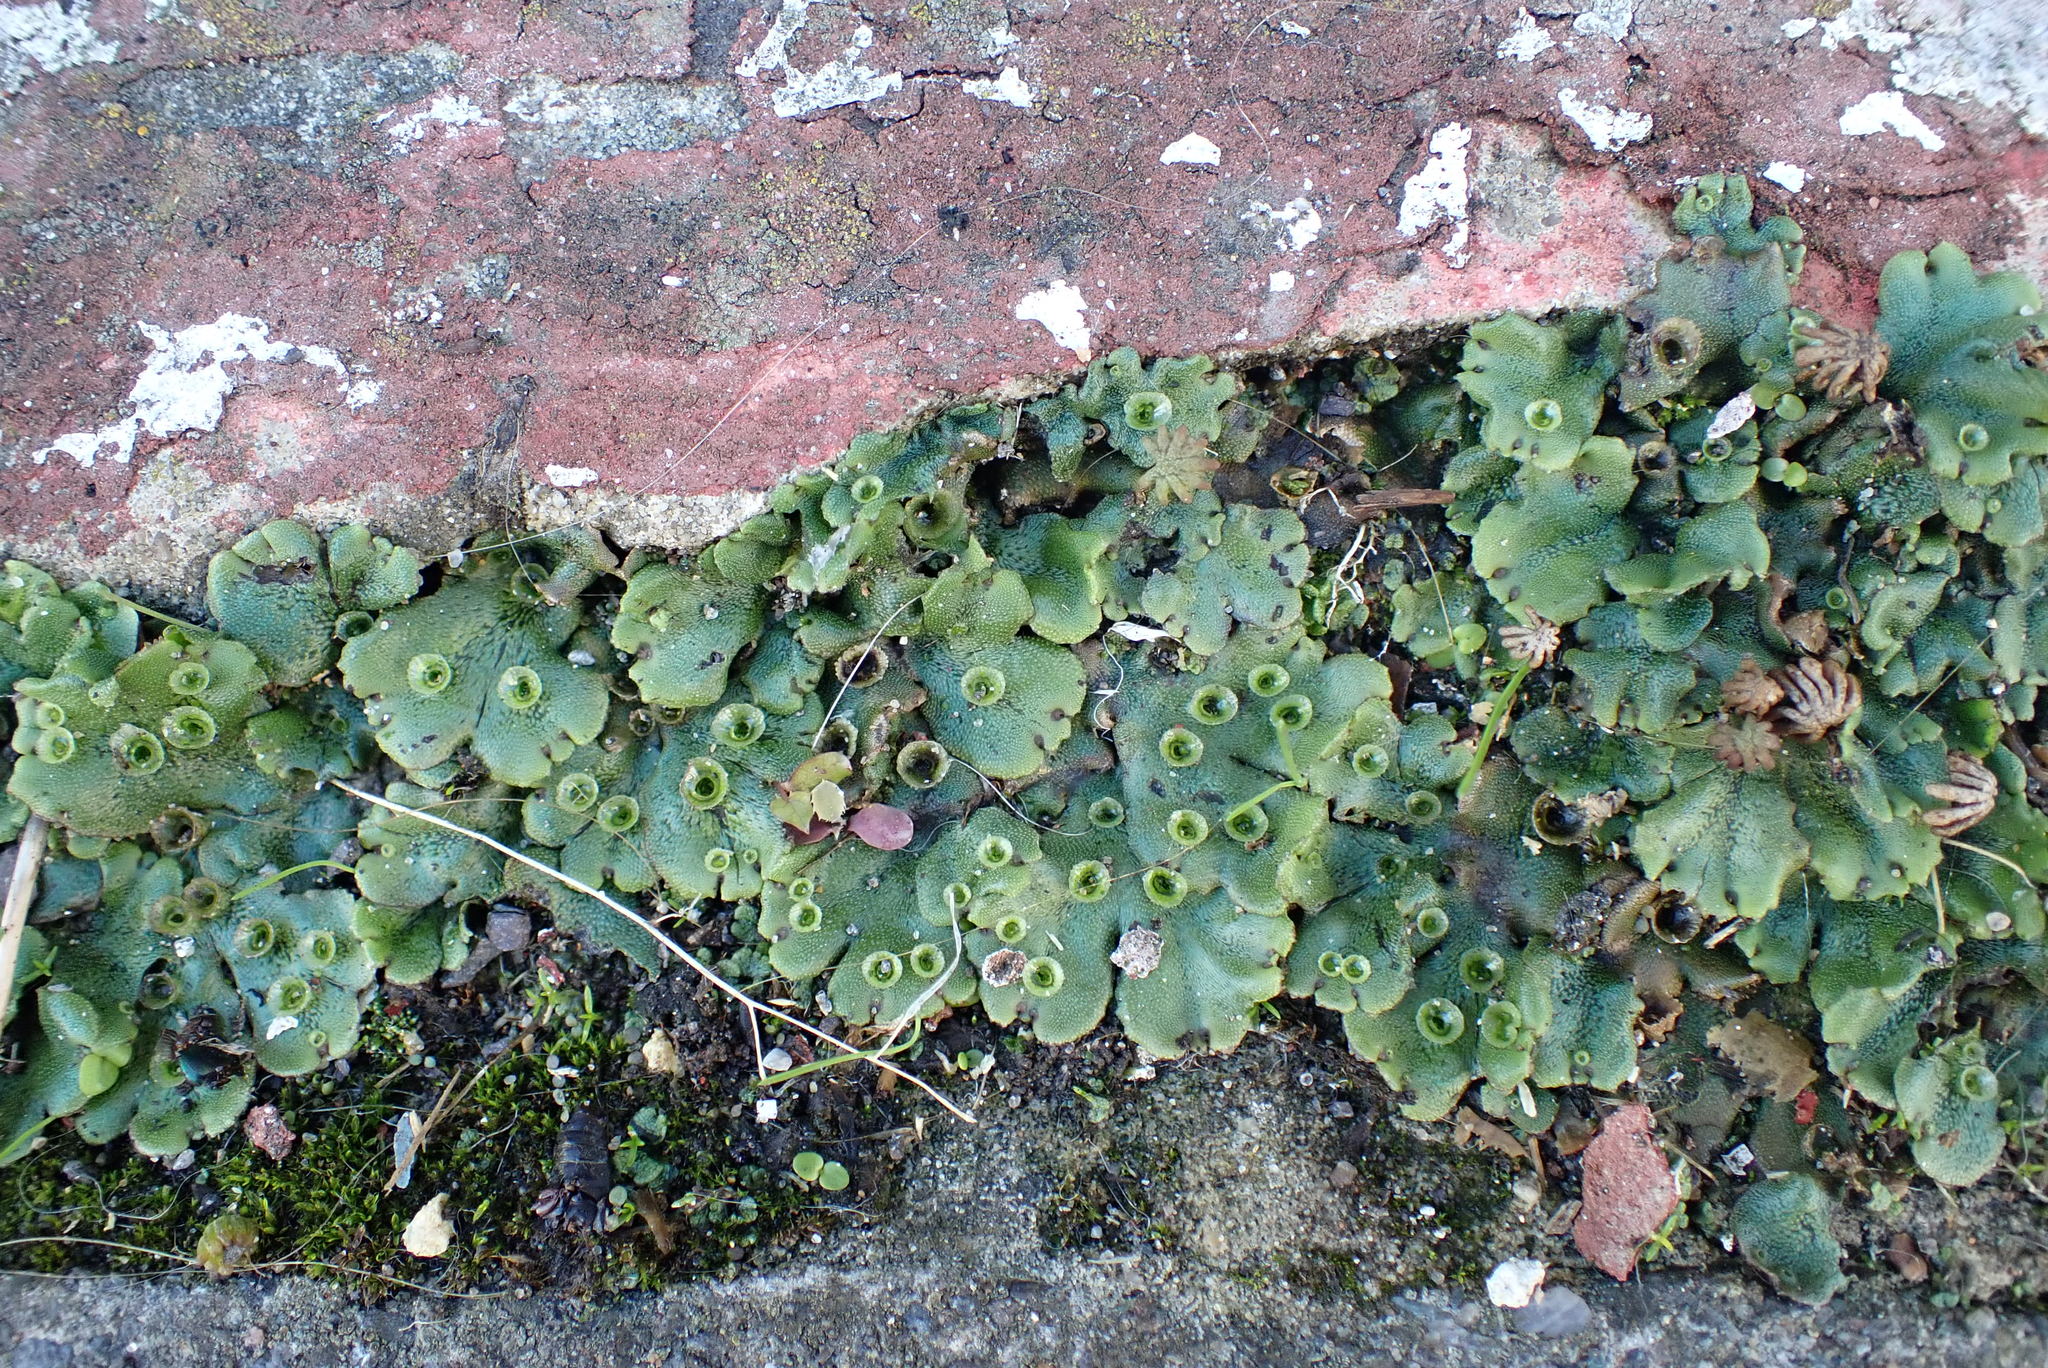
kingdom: Plantae
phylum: Marchantiophyta
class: Marchantiopsida
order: Marchantiales
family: Marchantiaceae
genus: Marchantia
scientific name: Marchantia polymorpha
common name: Common liverwort
